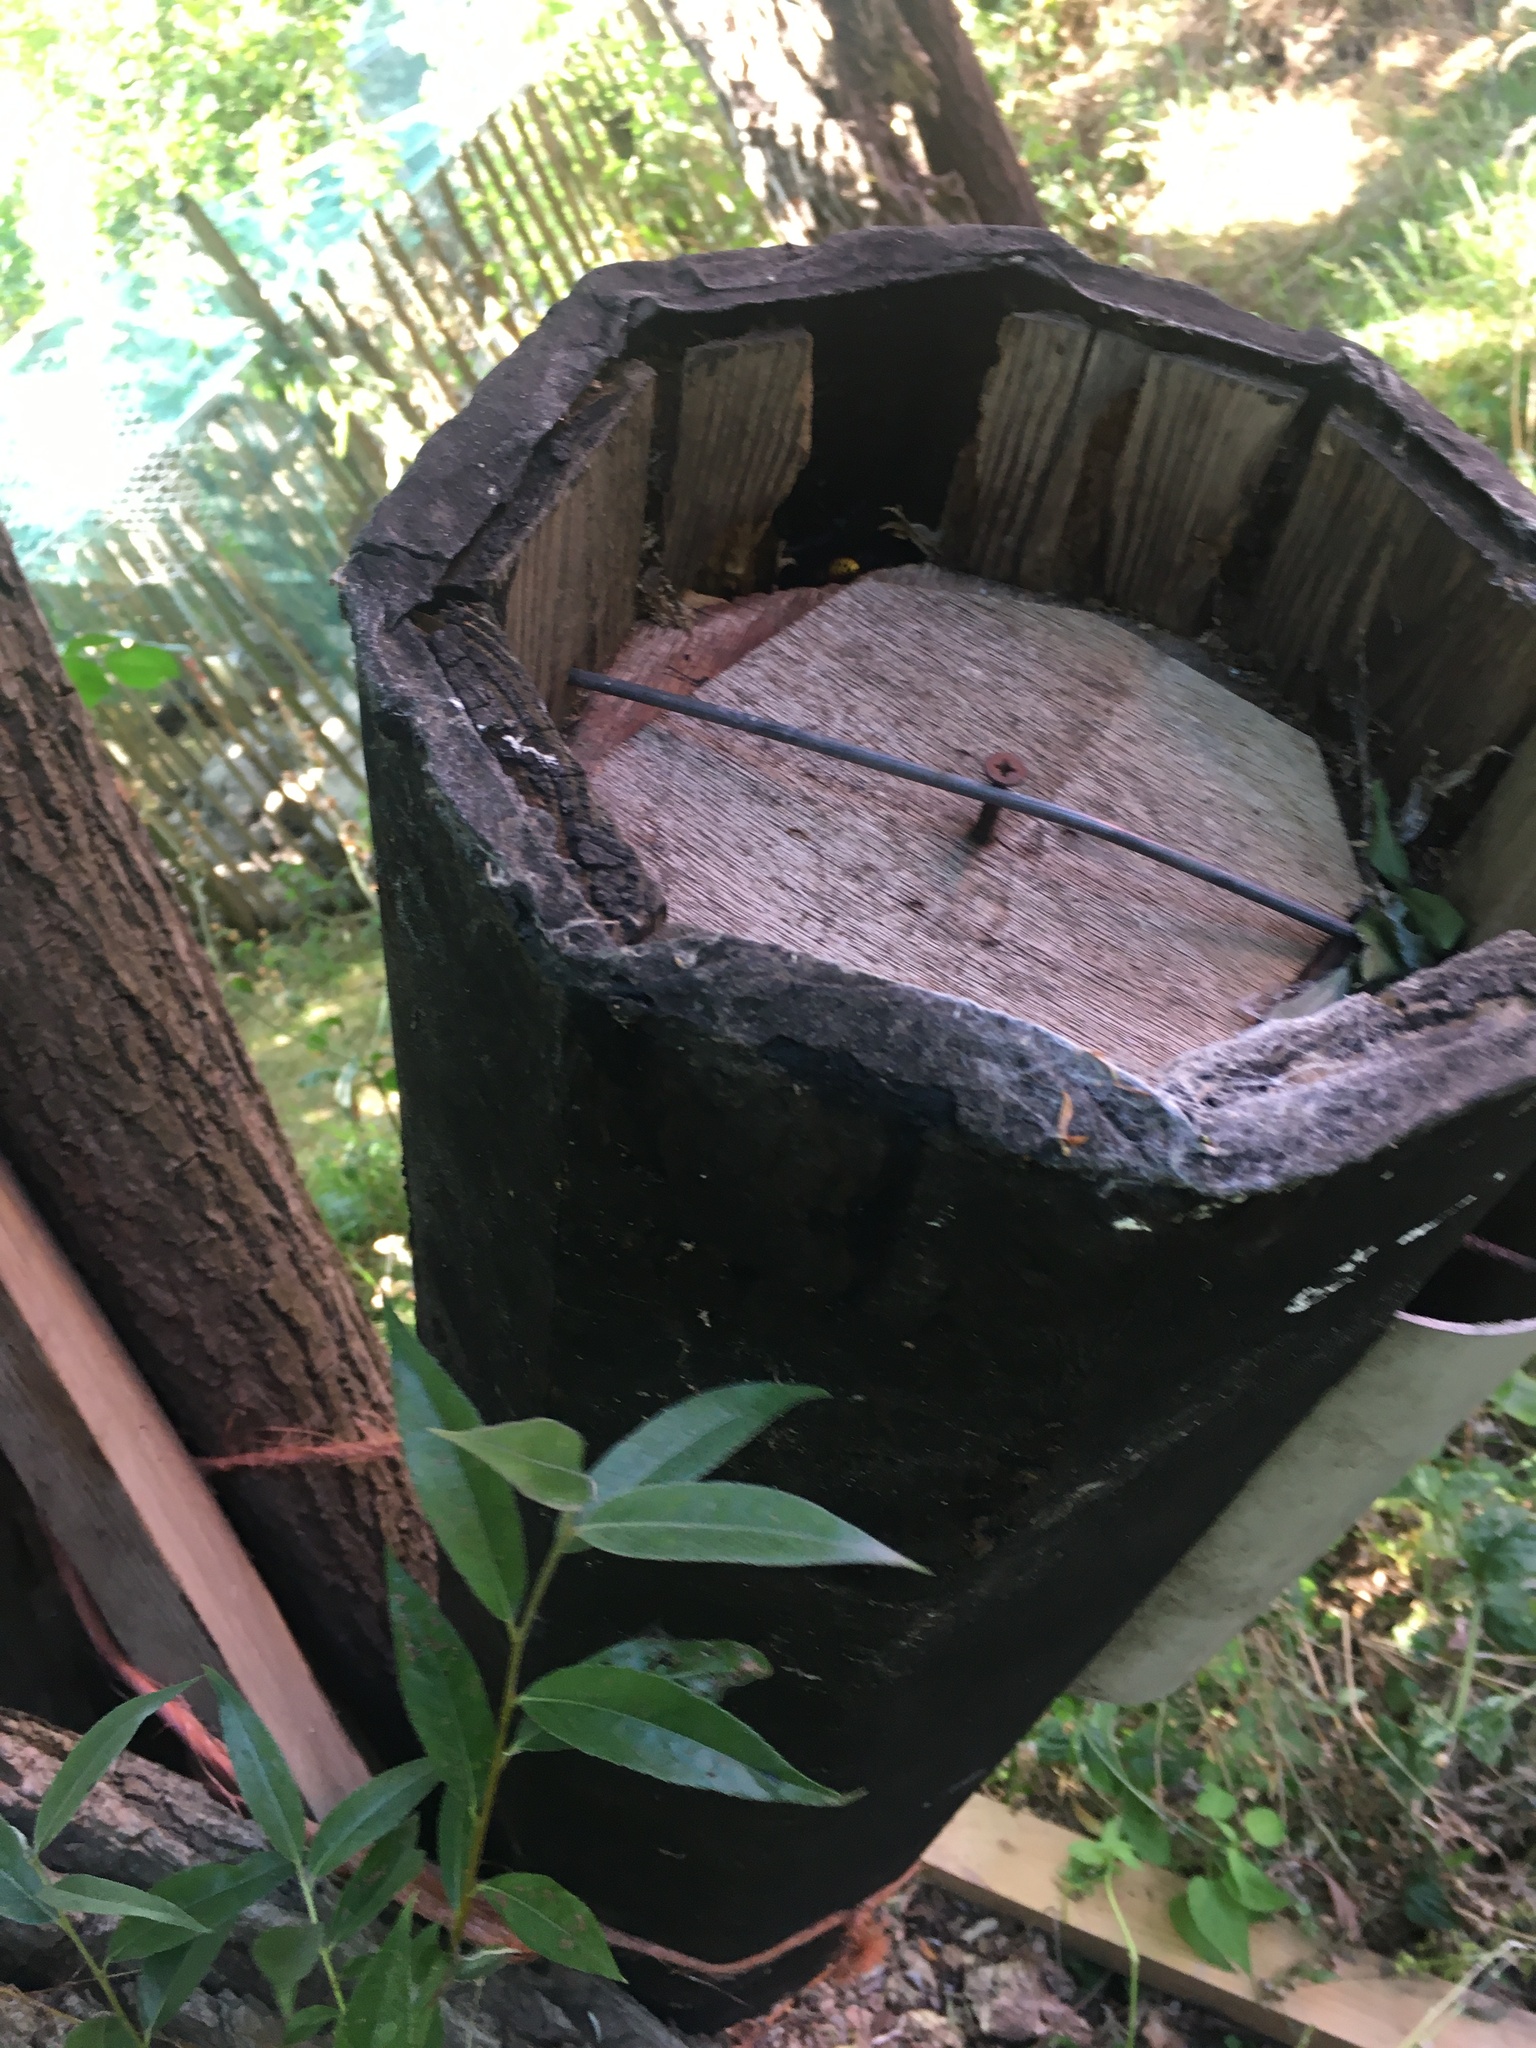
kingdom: Animalia
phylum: Arthropoda
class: Insecta
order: Hymenoptera
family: Vespidae
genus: Vespa
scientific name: Vespa crabro
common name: Hornet
